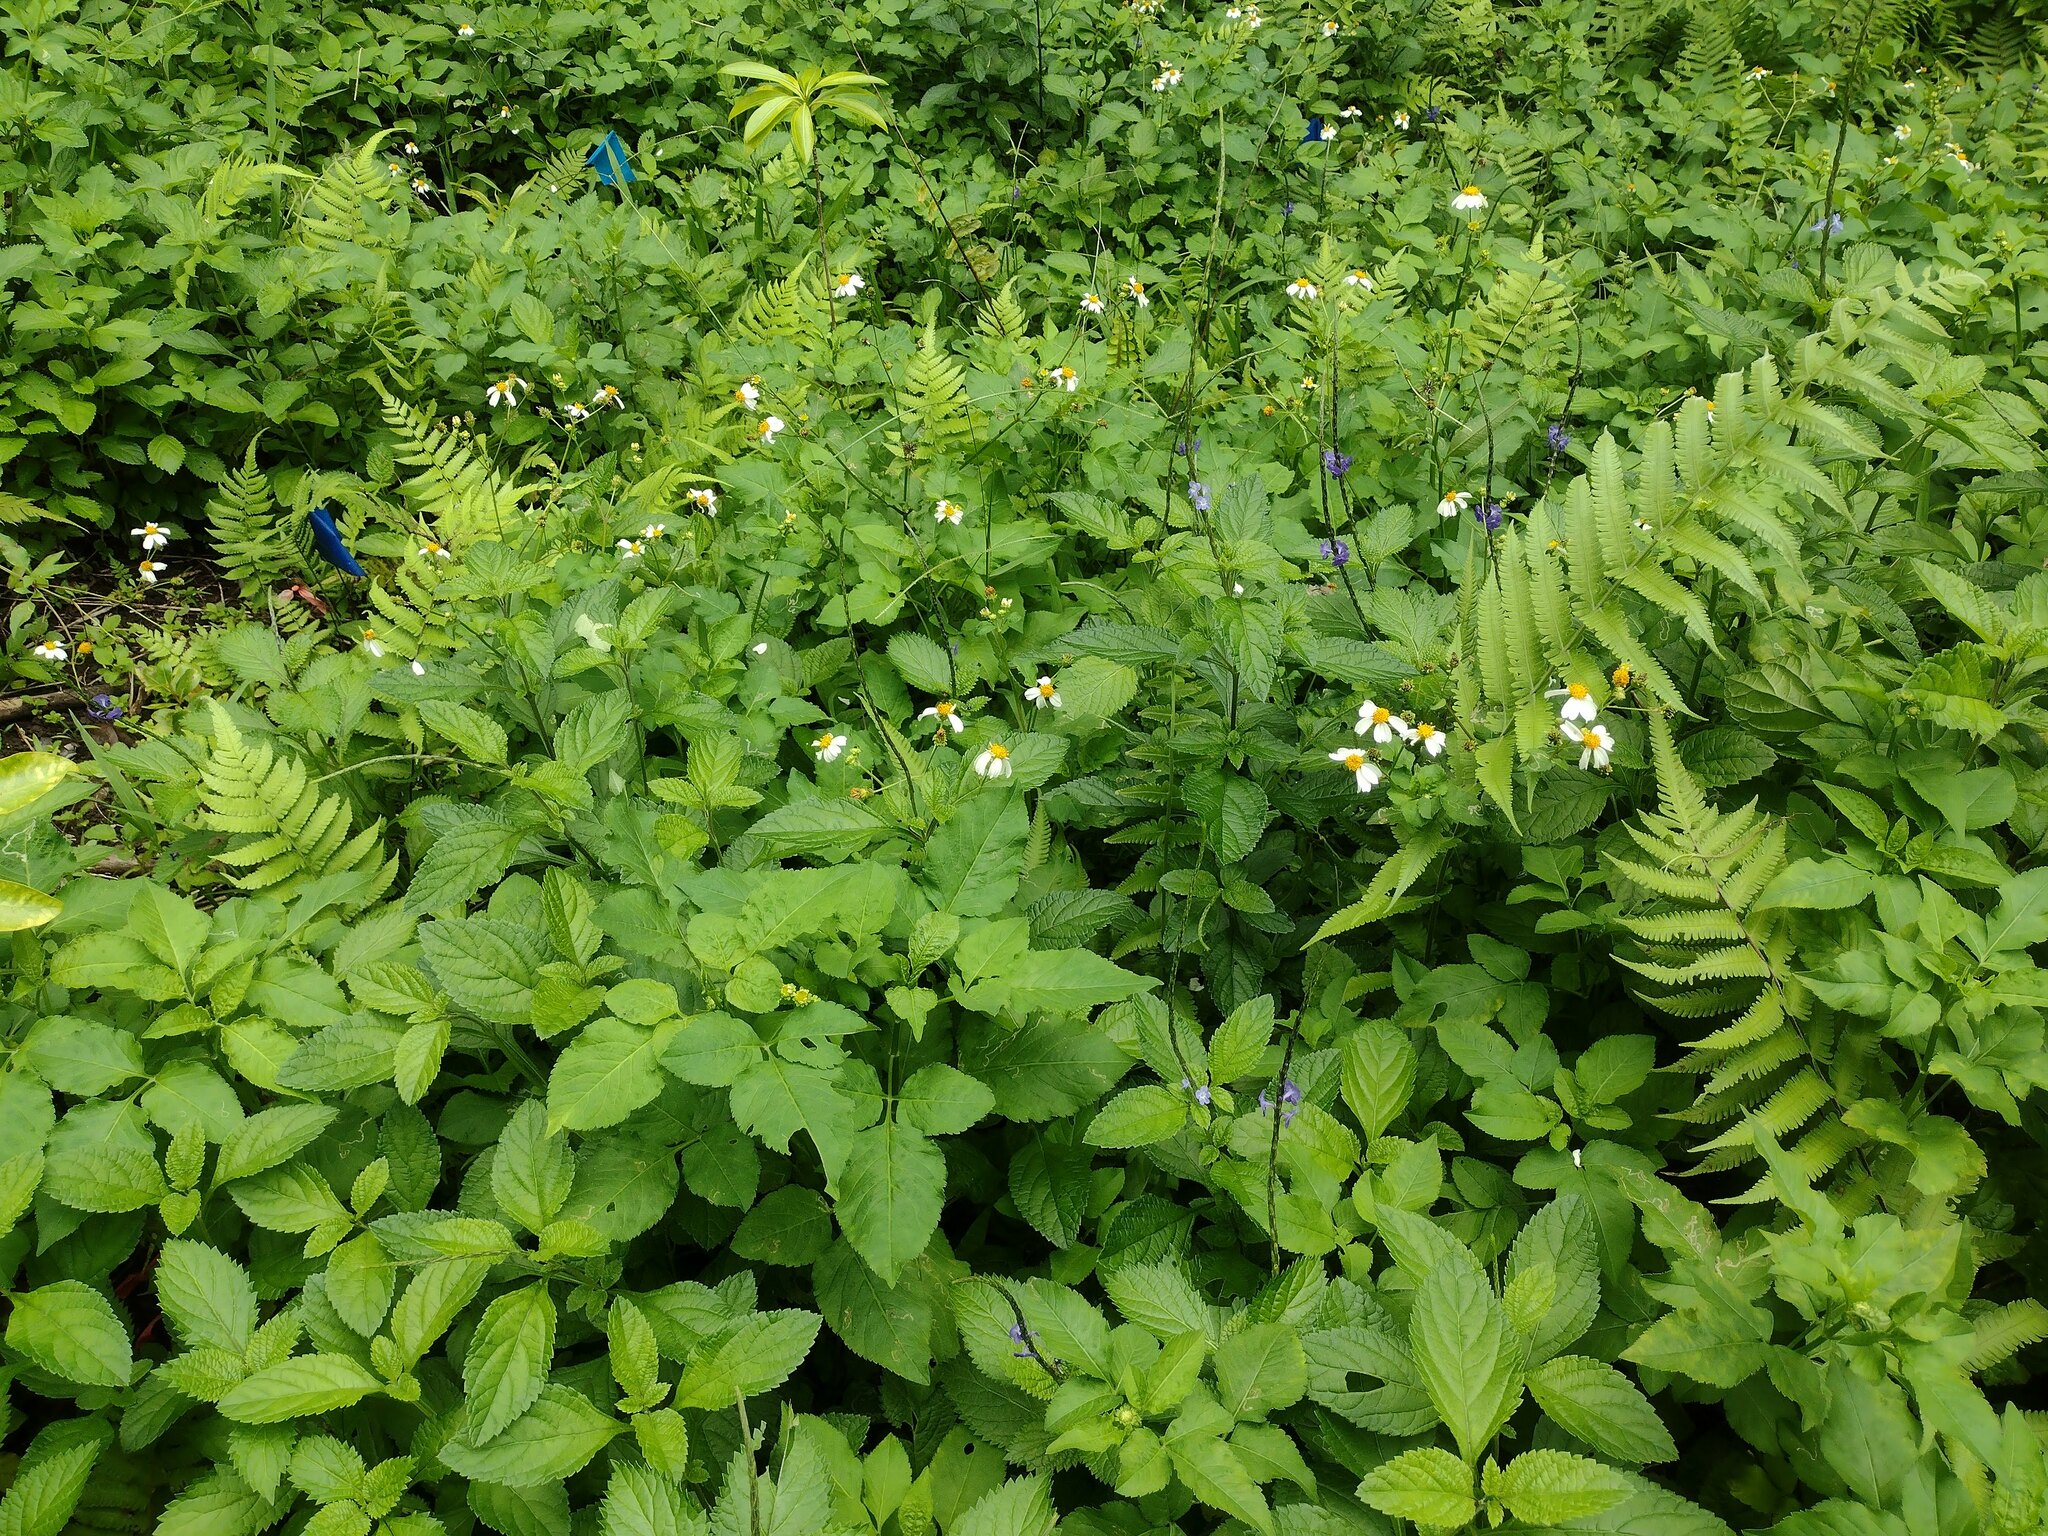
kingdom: Plantae
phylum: Tracheophyta
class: Magnoliopsida
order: Asterales
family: Asteraceae
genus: Bidens
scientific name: Bidens alba
